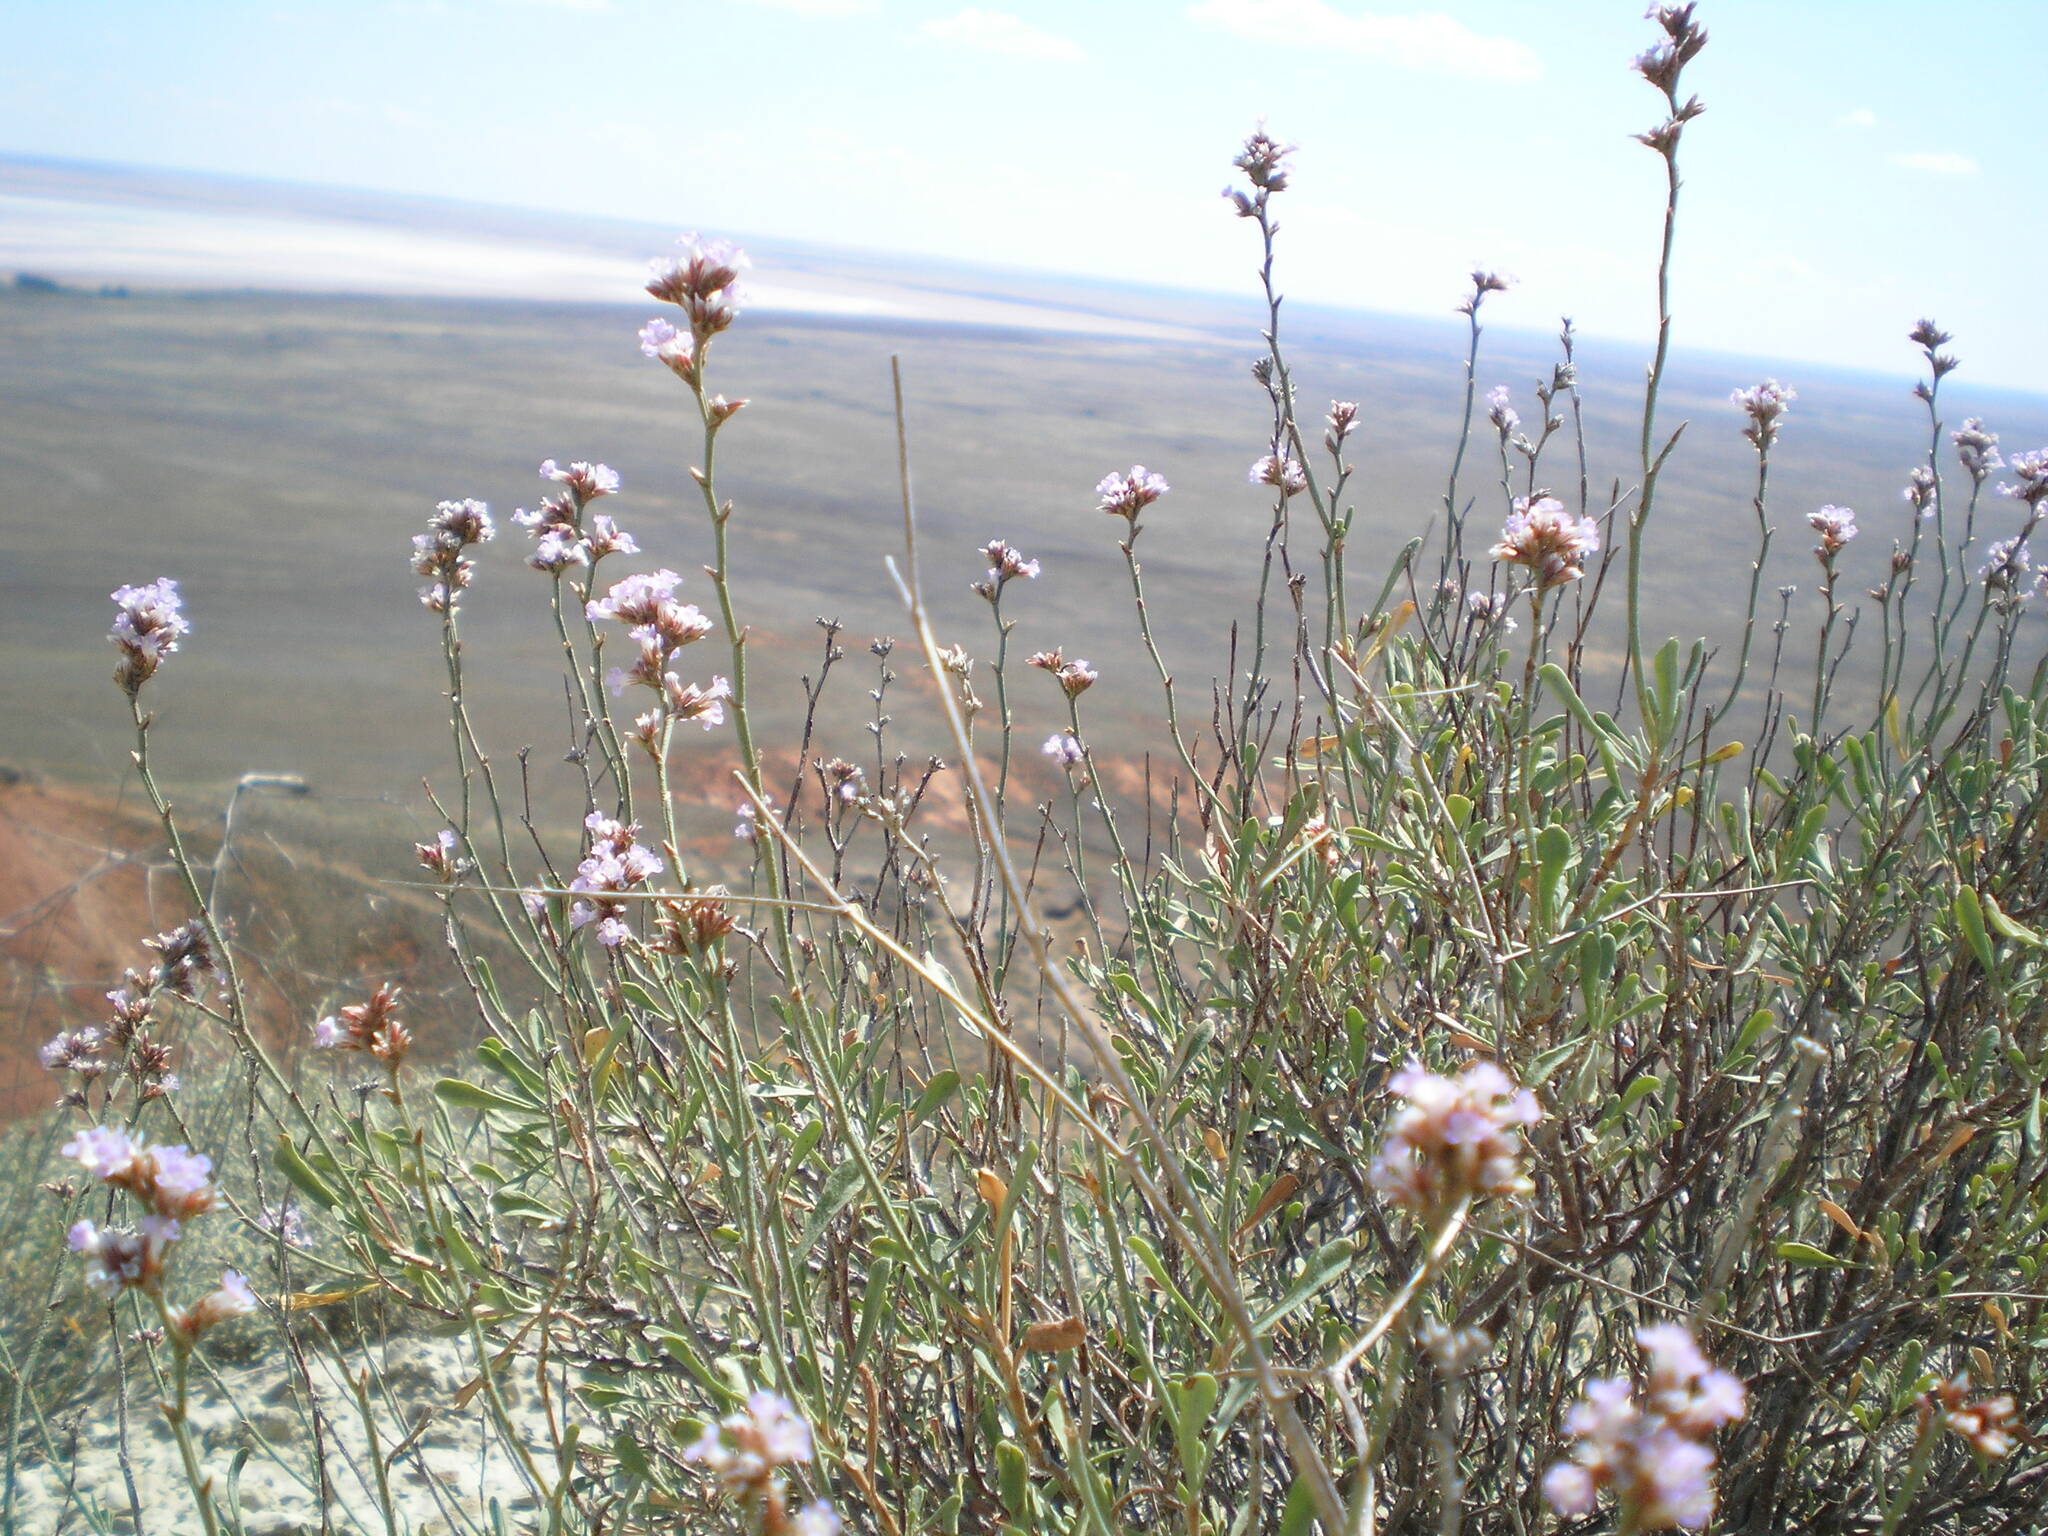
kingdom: Plantae
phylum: Tracheophyta
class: Magnoliopsida
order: Caryophyllales
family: Plumbaginaceae
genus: Limonium
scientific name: Limonium suffruticosum
